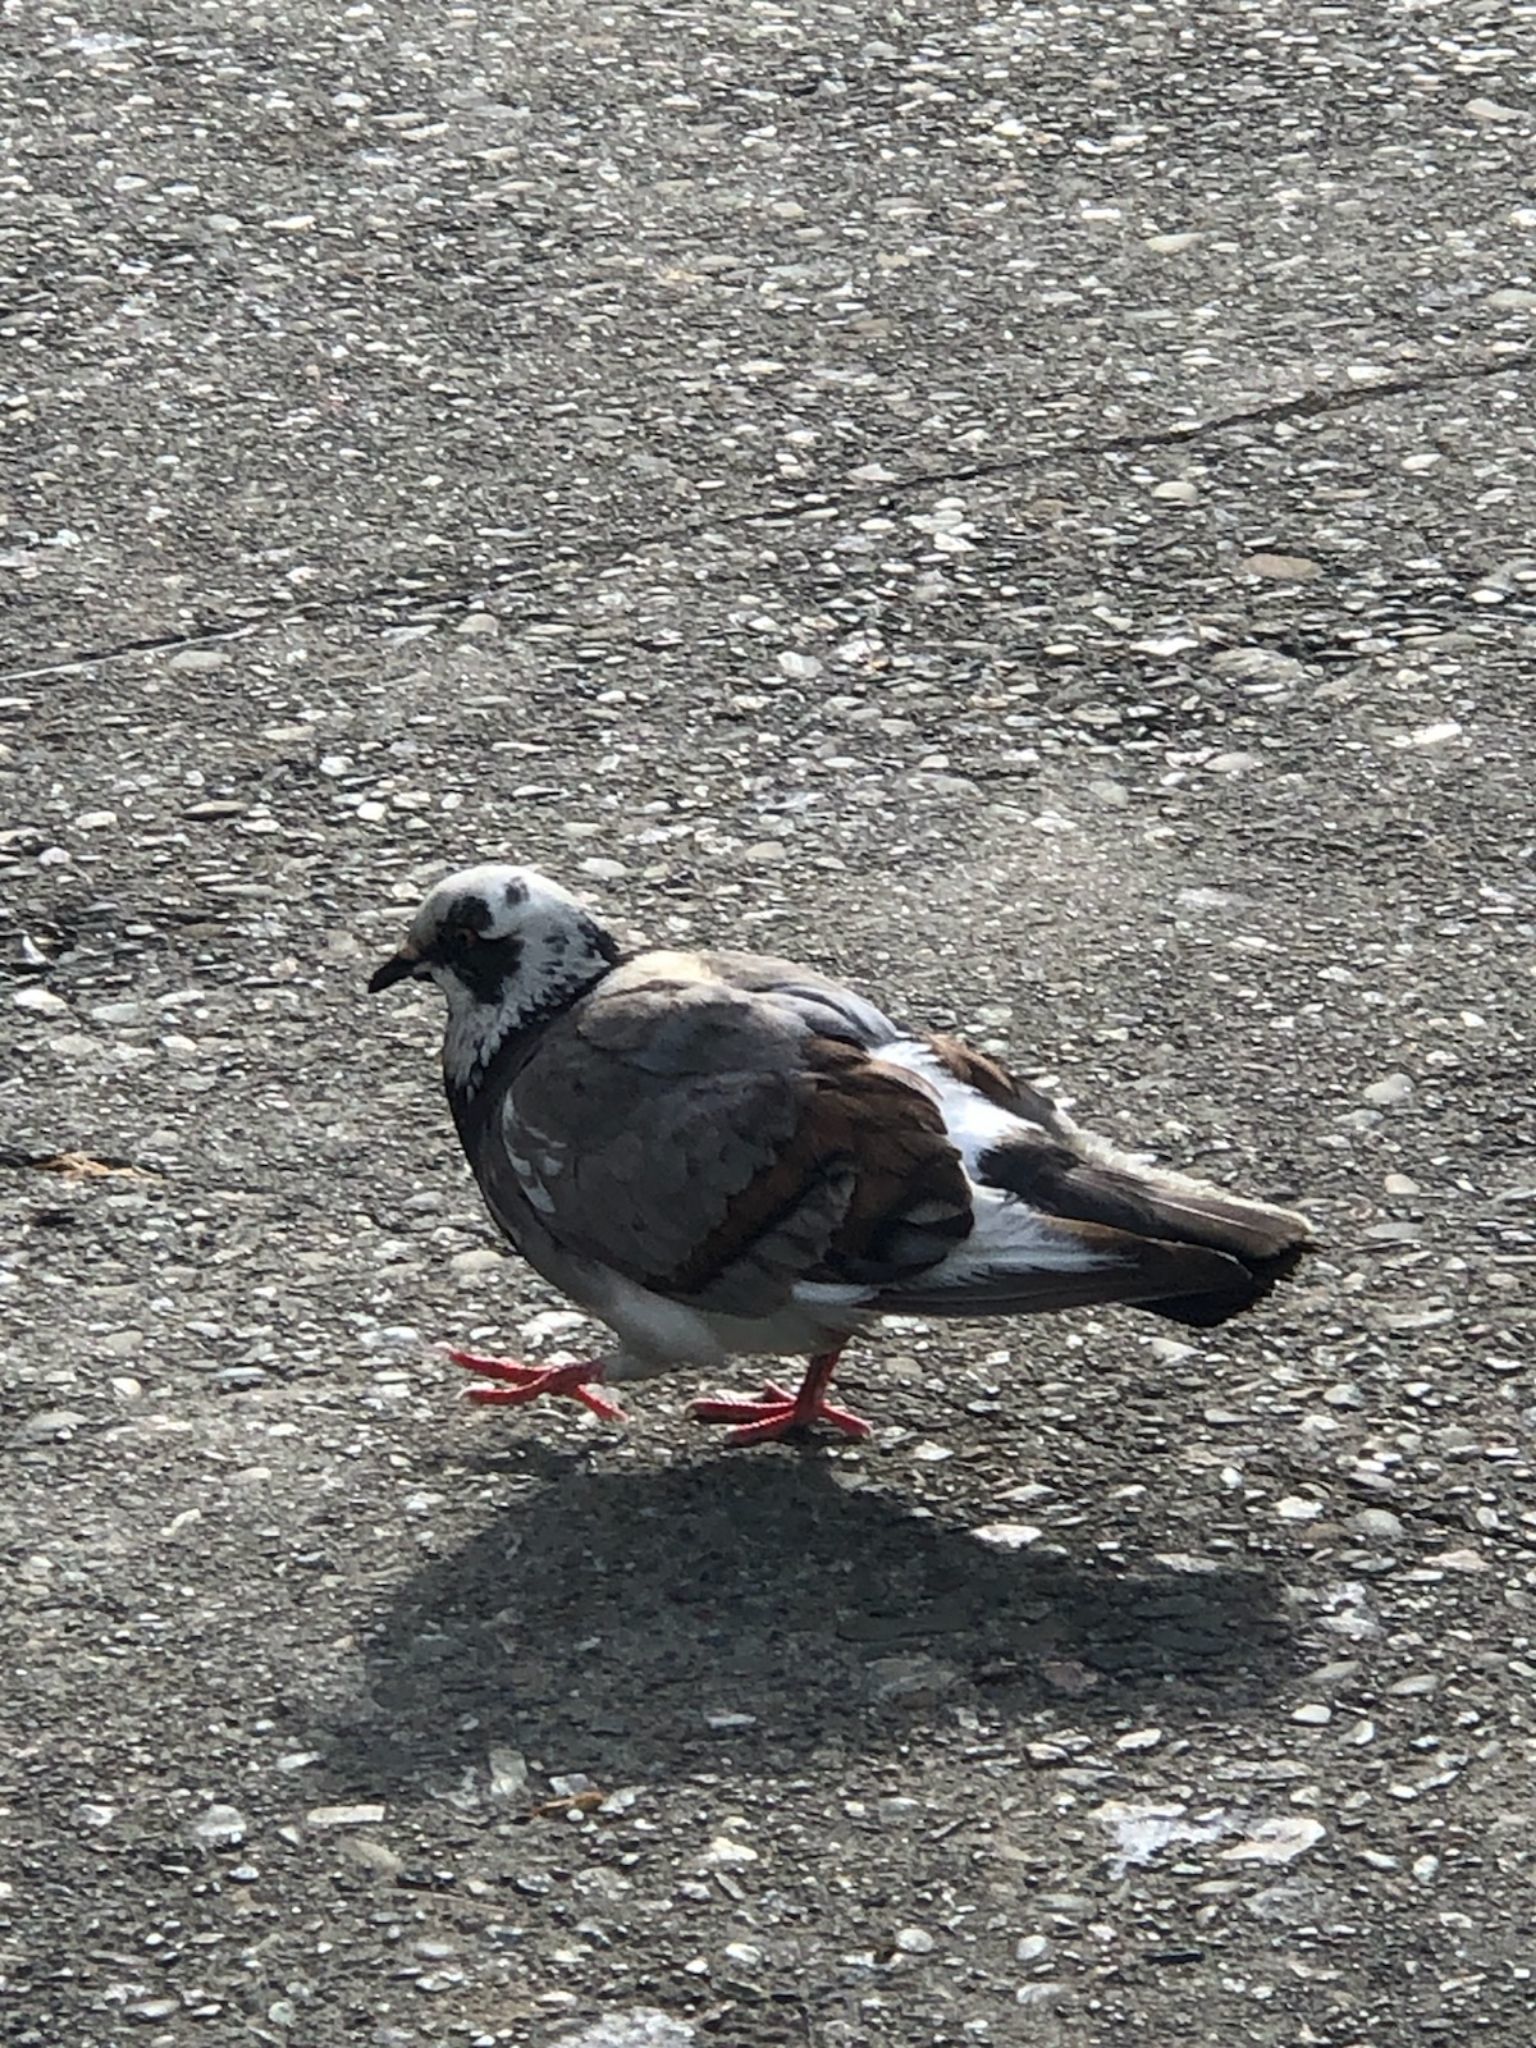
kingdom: Animalia
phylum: Chordata
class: Aves
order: Columbiformes
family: Columbidae
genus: Columba
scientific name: Columba livia
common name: Rock pigeon
